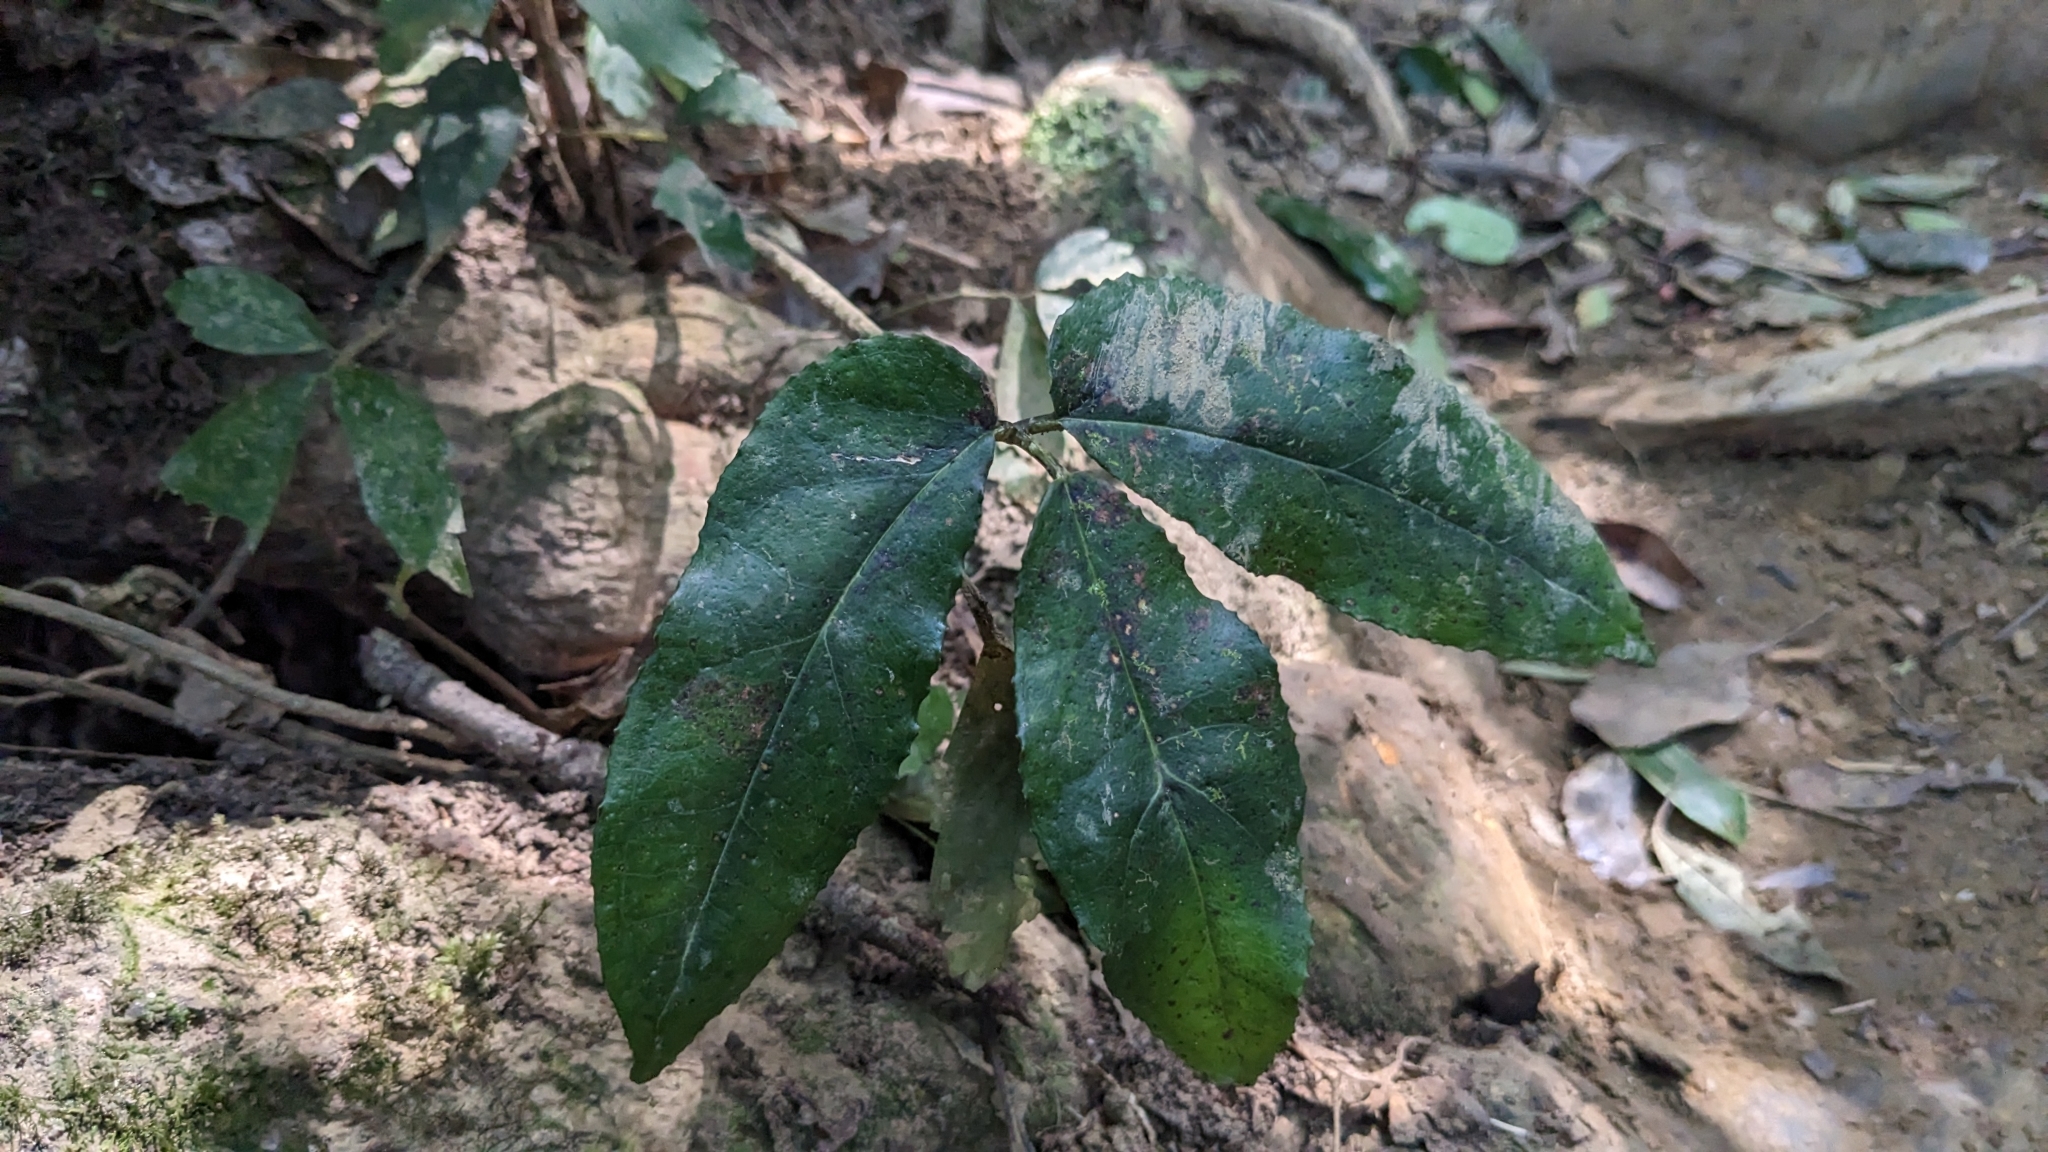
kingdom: Plantae
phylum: Tracheophyta
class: Liliopsida
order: Alismatales
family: Araceae
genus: Arisaema
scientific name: Arisaema penicillatum
